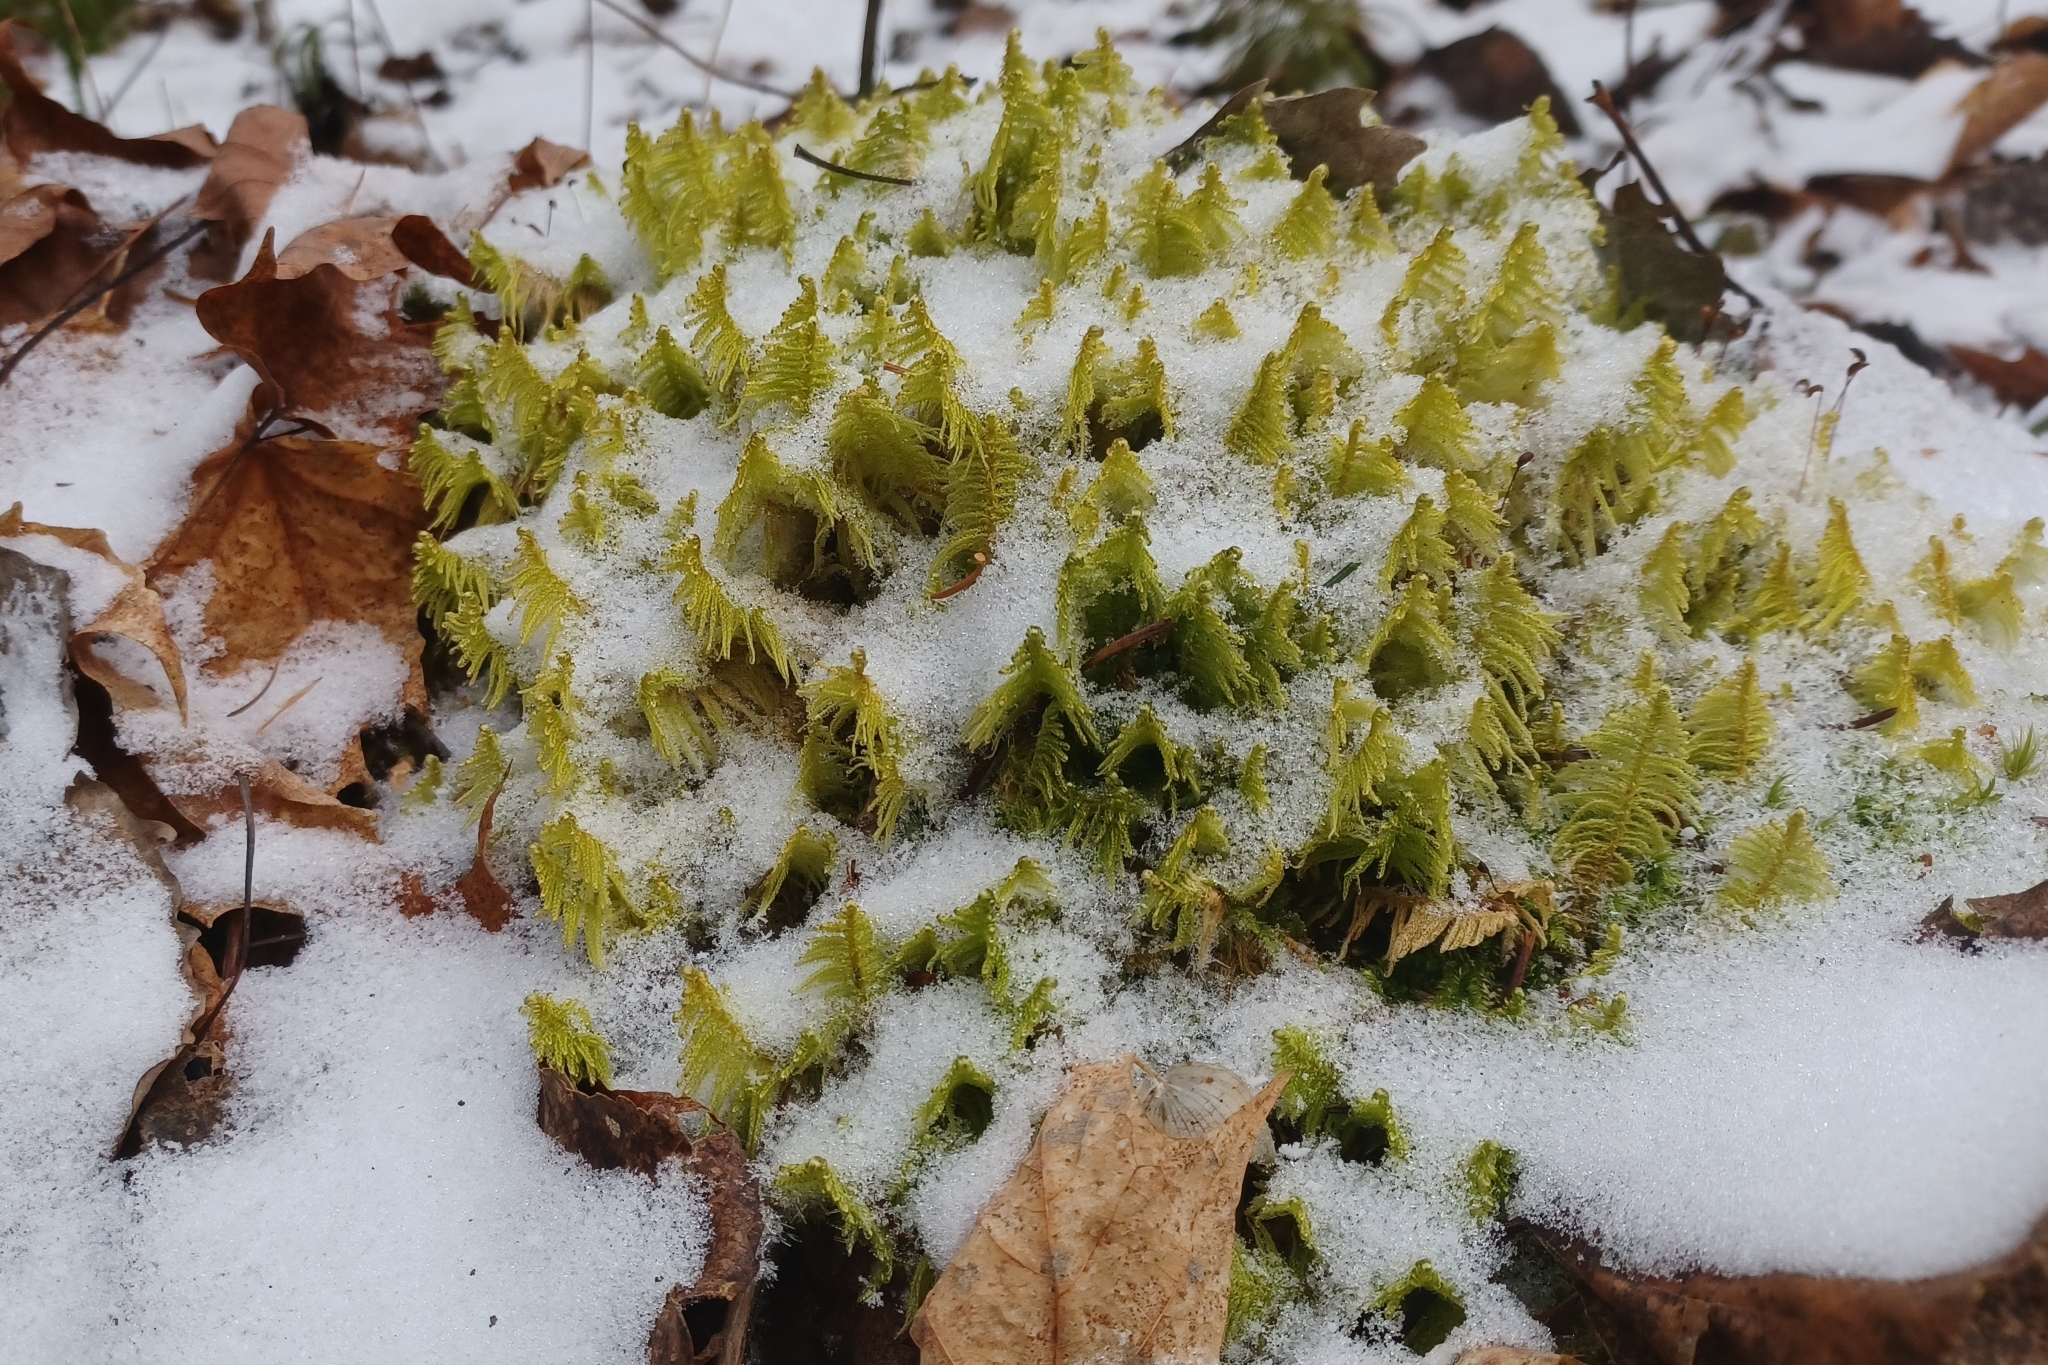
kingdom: Plantae
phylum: Bryophyta
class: Bryopsida
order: Hypnales
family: Pylaisiaceae
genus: Ptilium
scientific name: Ptilium crista-castrensis
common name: Knight's plume moss
